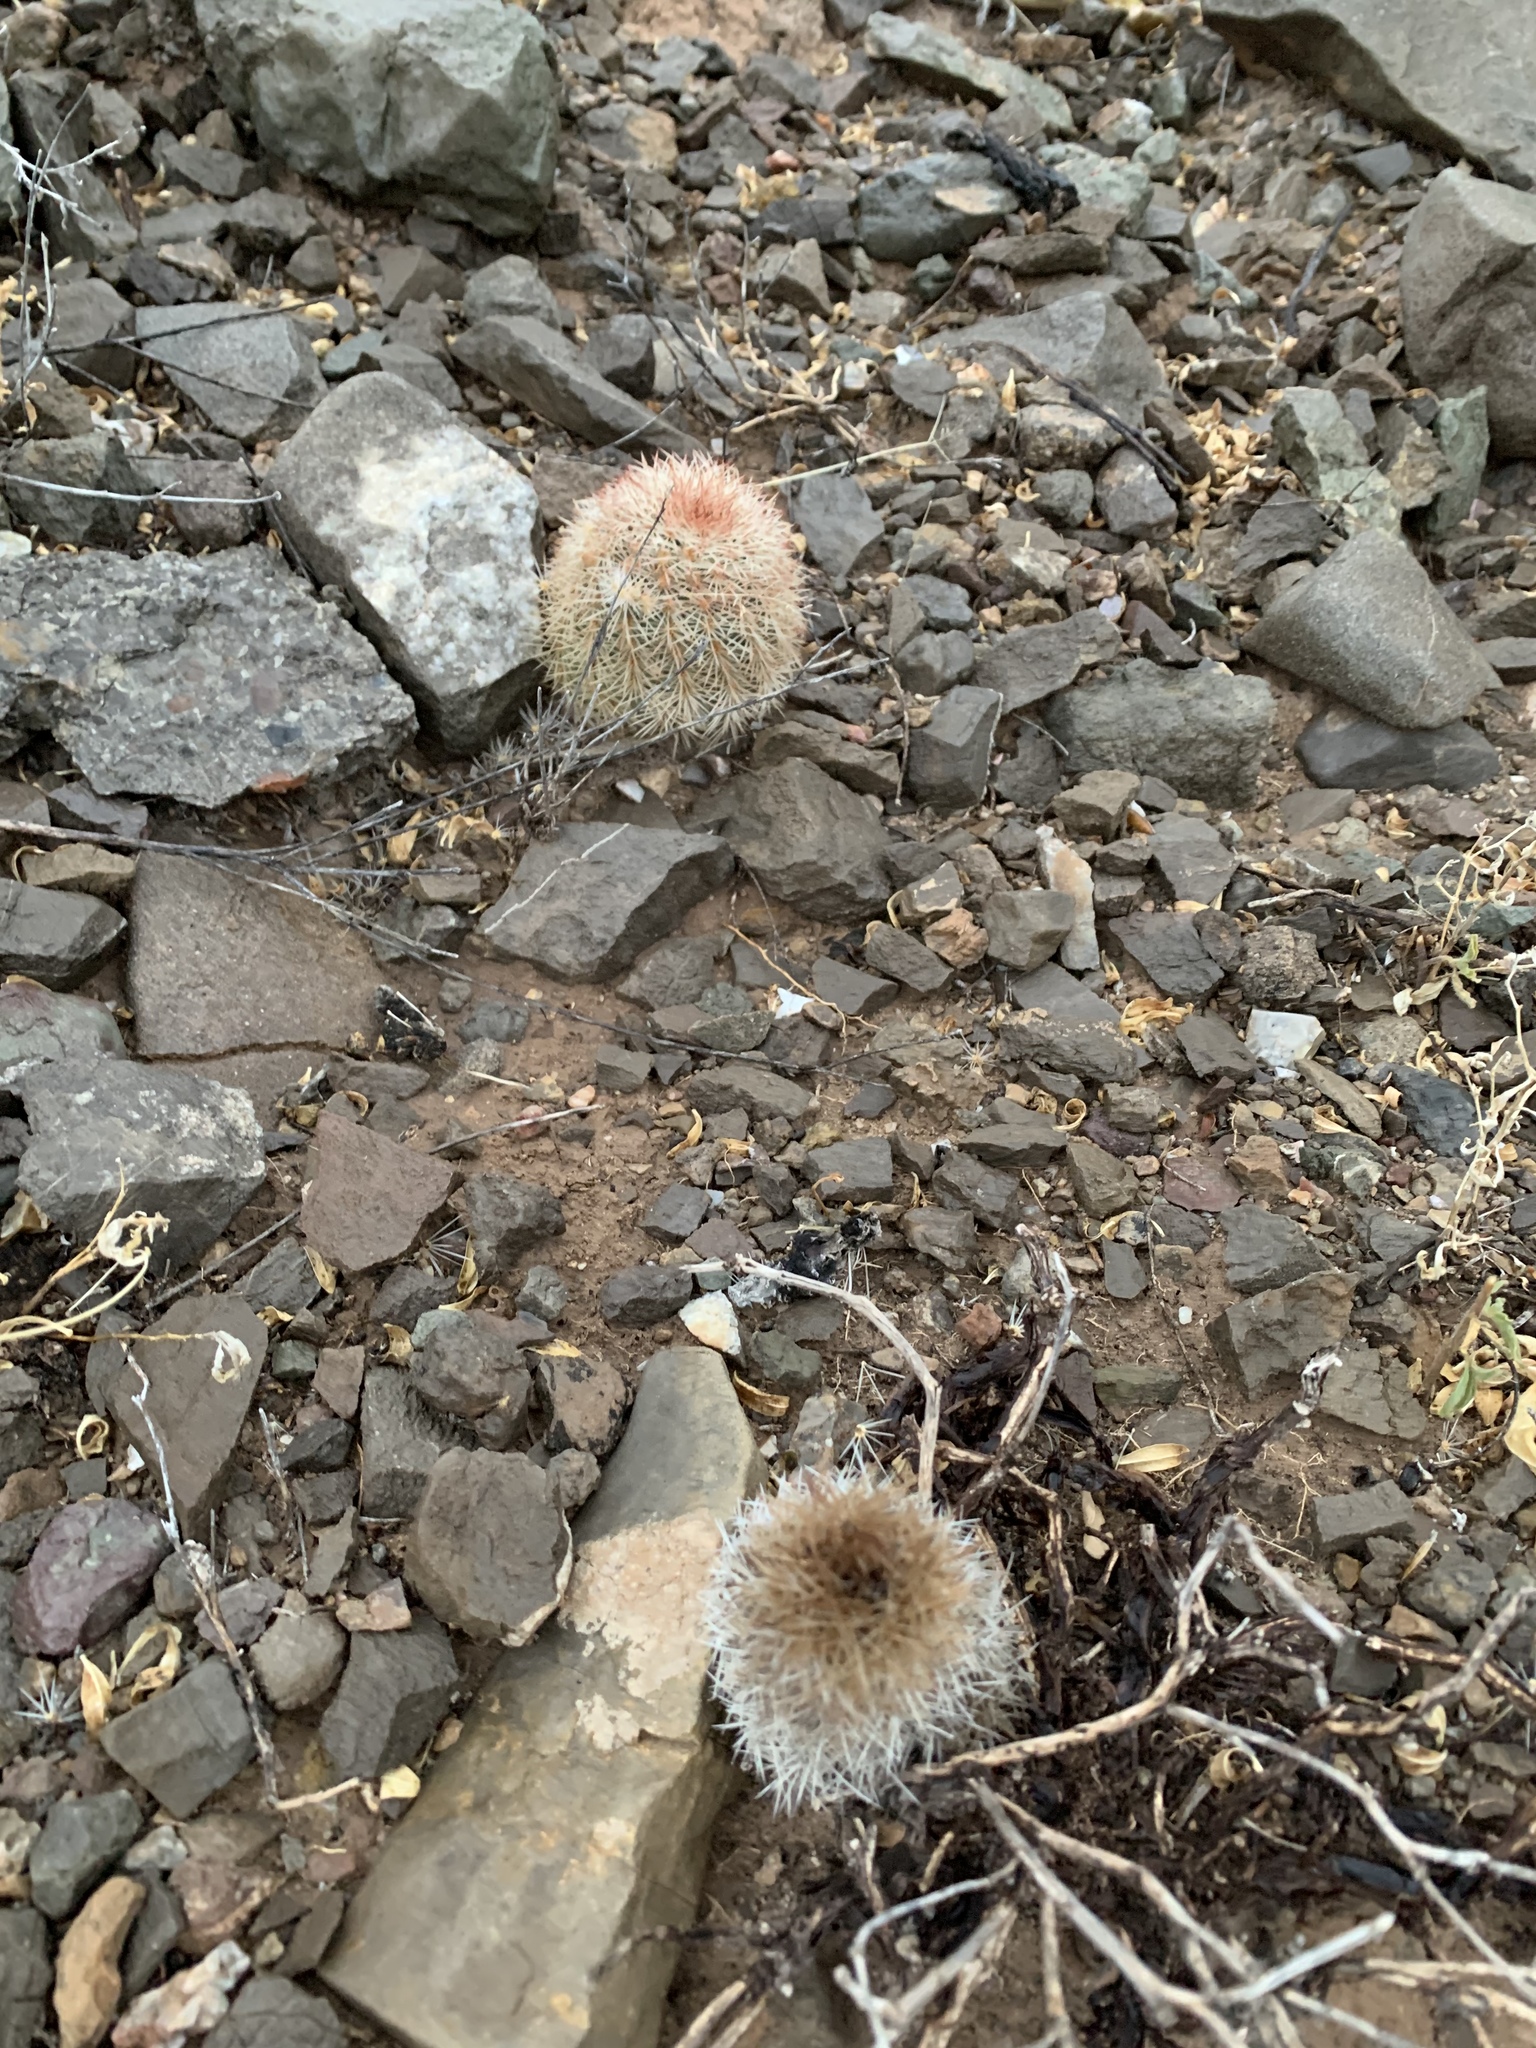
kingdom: Plantae
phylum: Tracheophyta
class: Magnoliopsida
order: Caryophyllales
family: Cactaceae
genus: Echinocereus
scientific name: Echinocereus dasyacanthus
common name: Spiny hedgehog cactus
